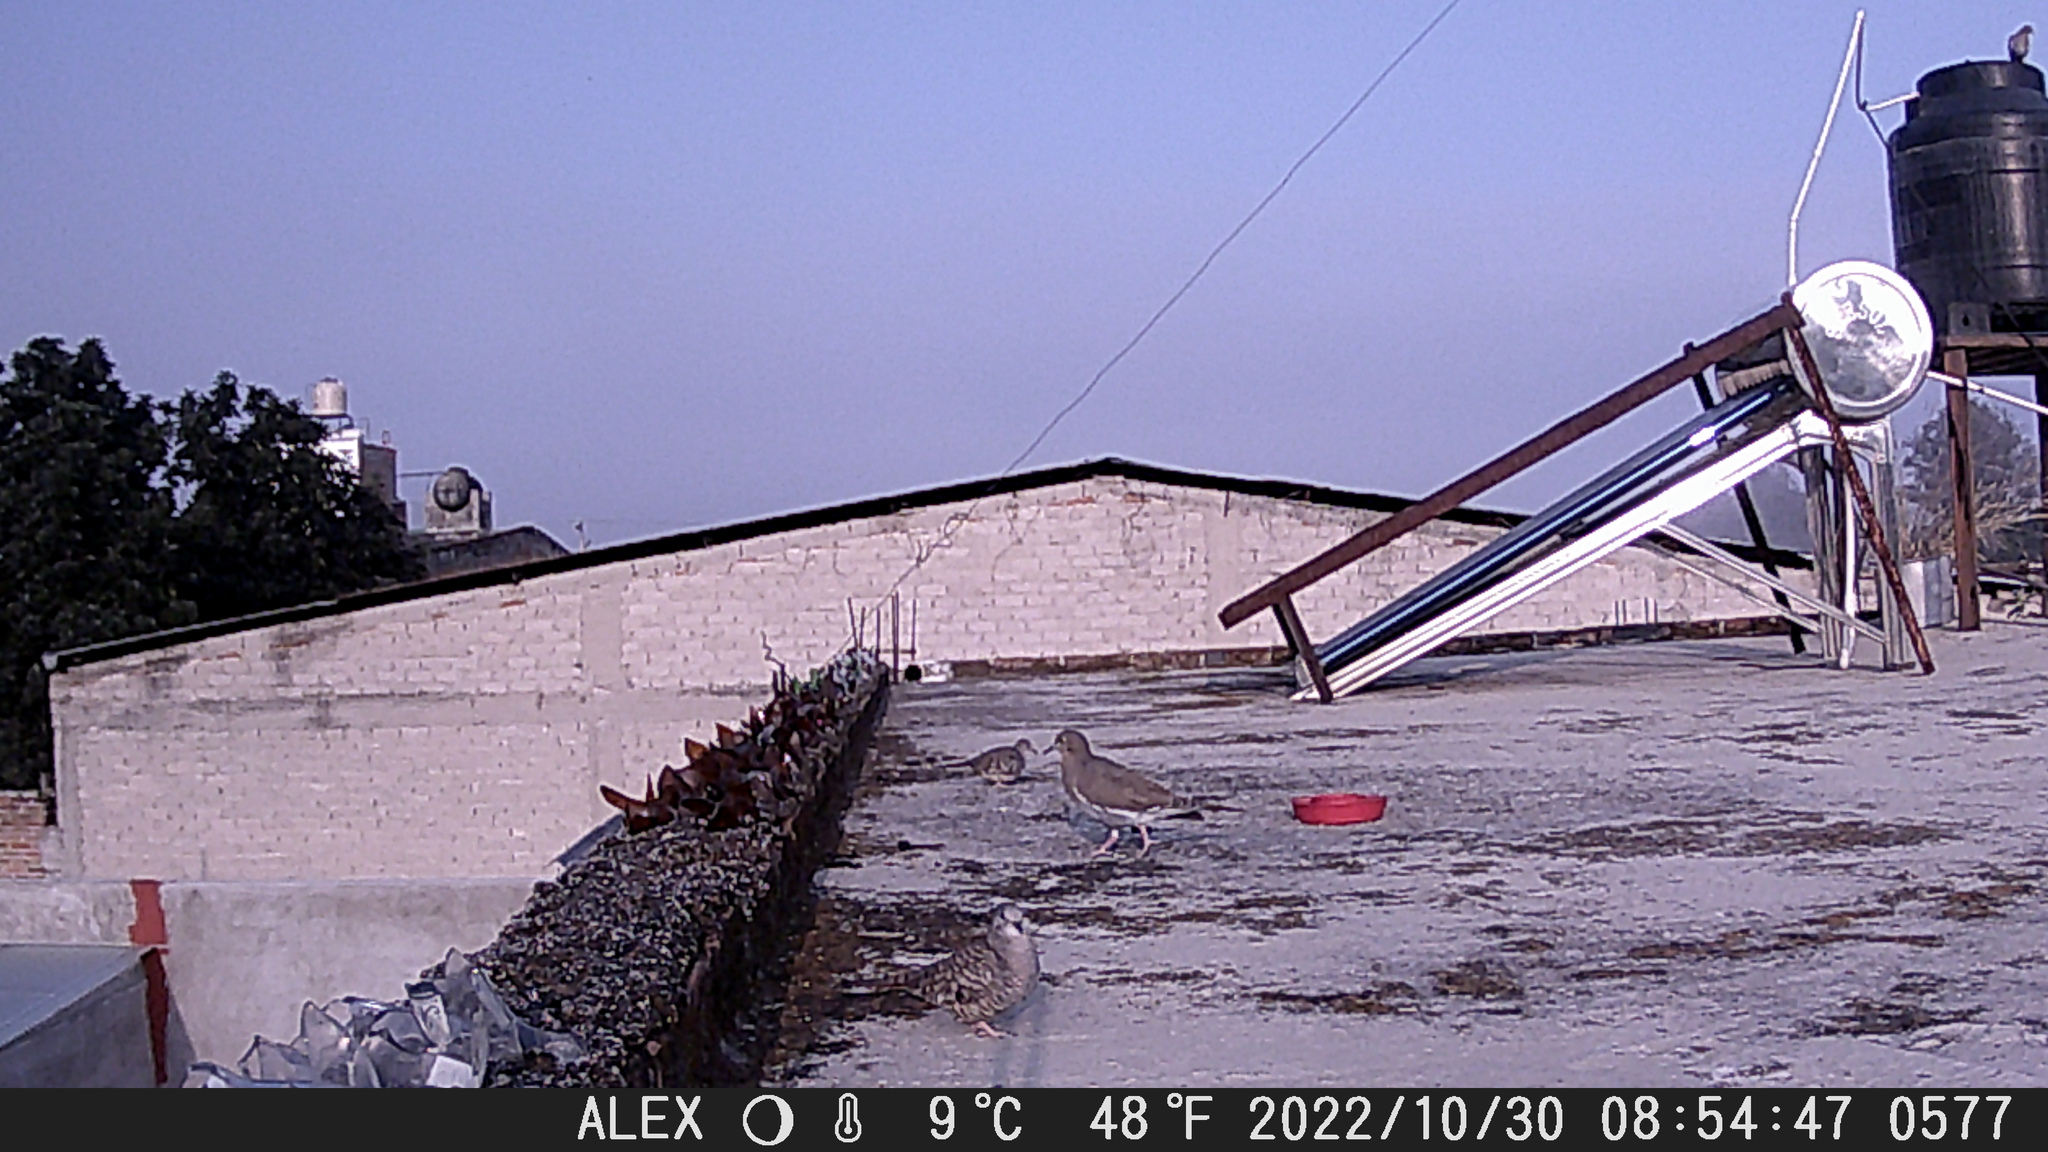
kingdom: Animalia
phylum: Chordata
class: Aves
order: Columbiformes
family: Columbidae
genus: Columbina
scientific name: Columbina inca
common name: Inca dove
